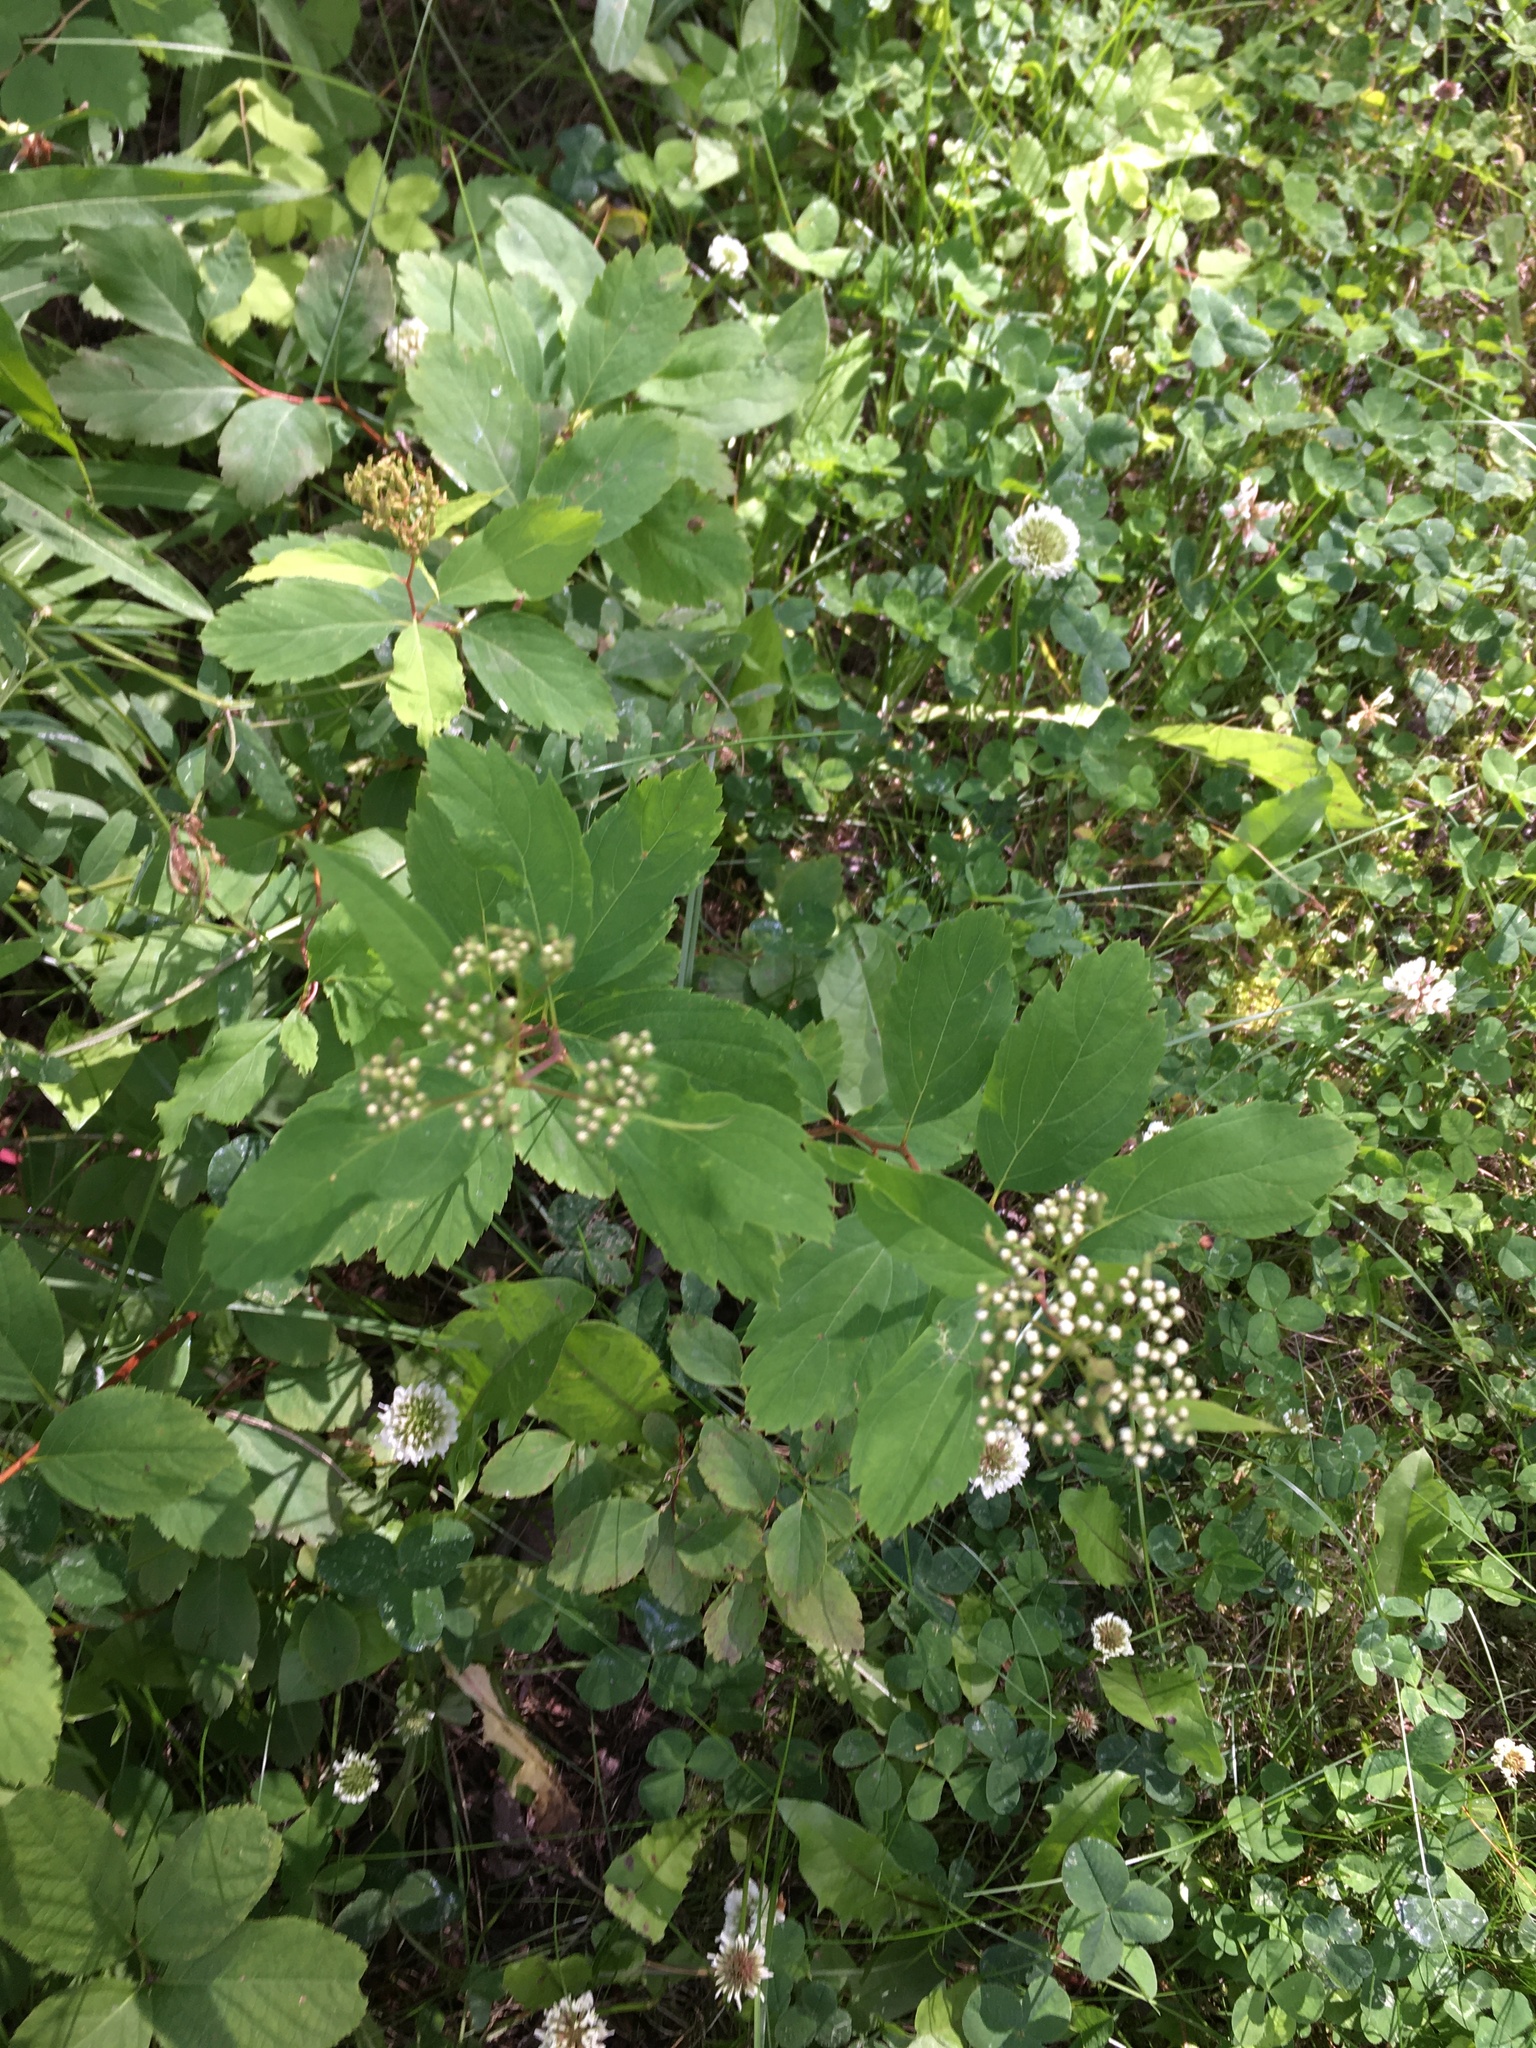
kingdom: Plantae
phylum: Tracheophyta
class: Magnoliopsida
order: Rosales
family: Rosaceae
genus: Spiraea
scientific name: Spiraea lucida
